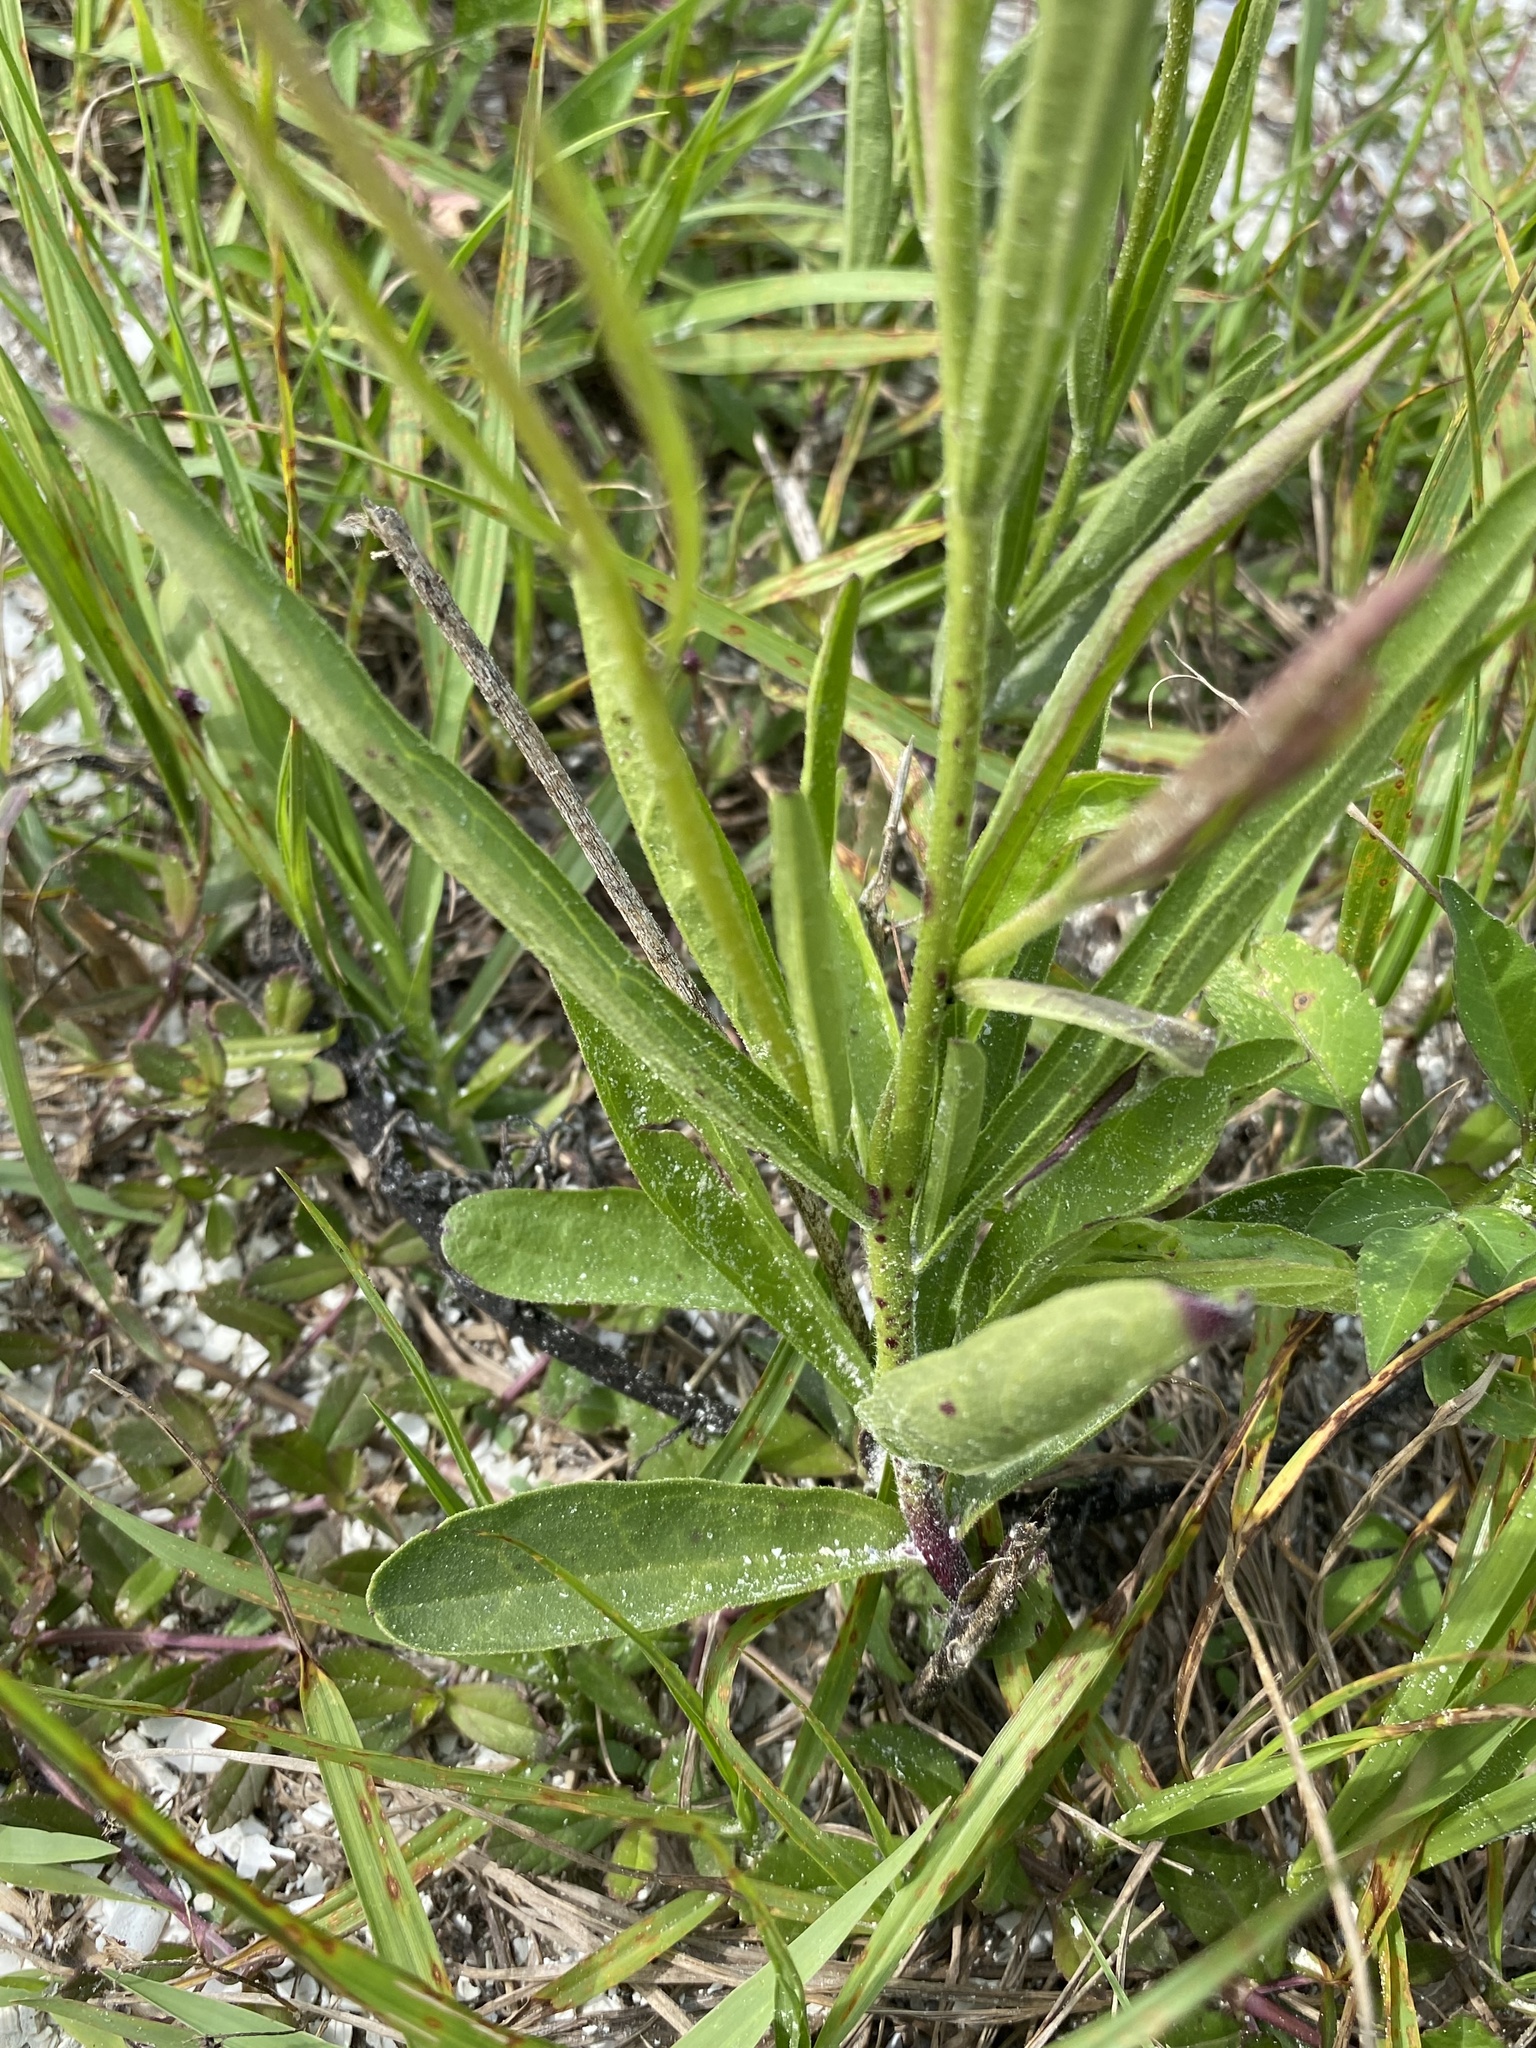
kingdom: Plantae
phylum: Tracheophyta
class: Magnoliopsida
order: Fabales
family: Fabaceae
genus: Melilotus
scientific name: Melilotus albus
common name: White melilot
